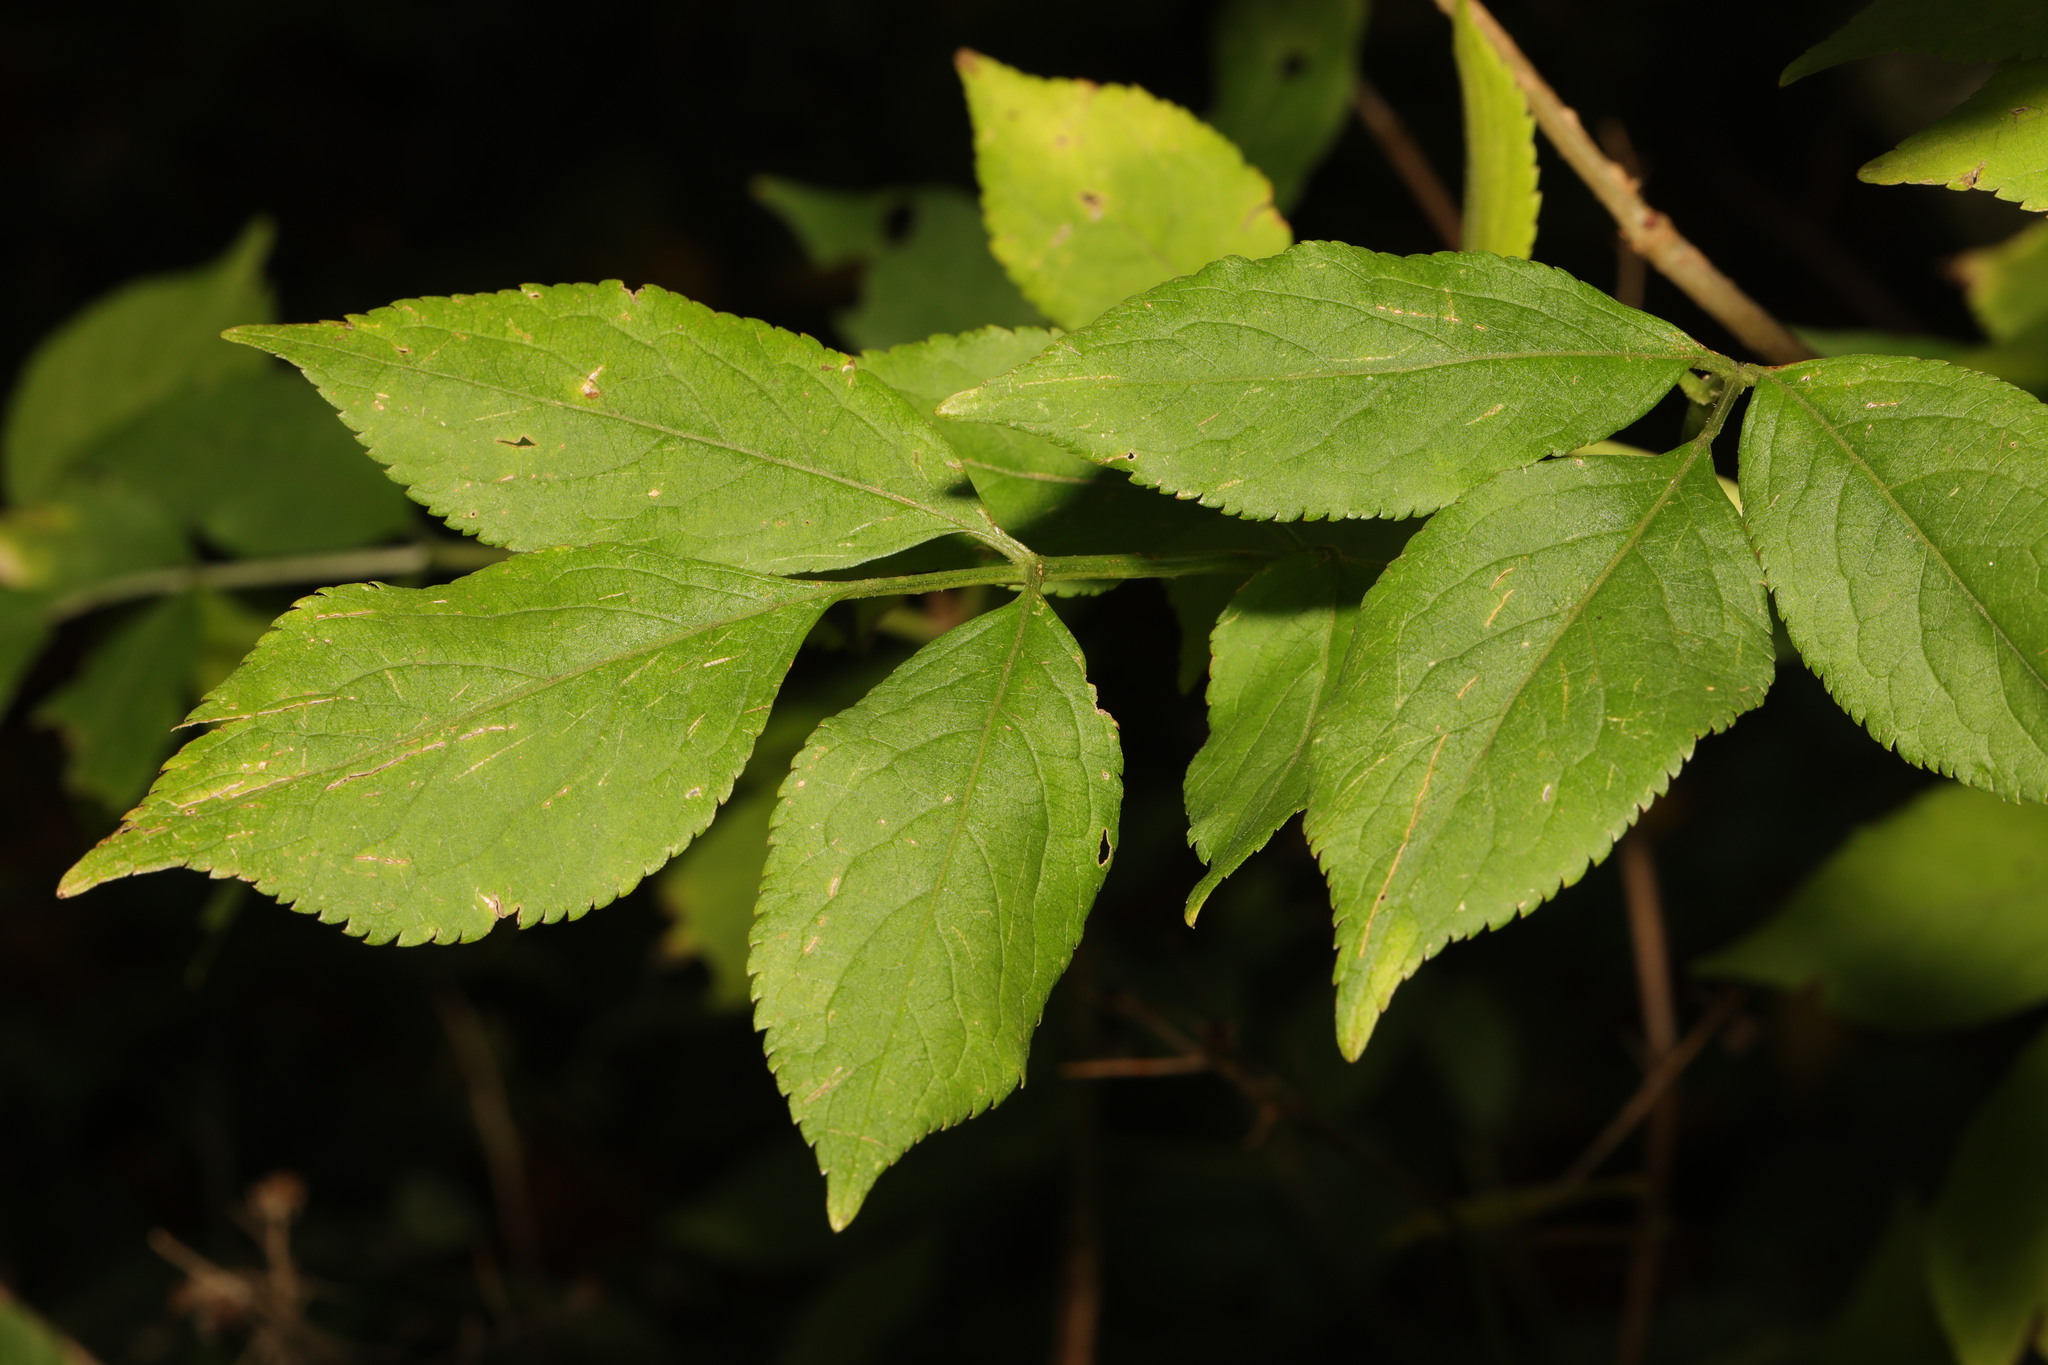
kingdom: Plantae
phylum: Tracheophyta
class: Magnoliopsida
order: Dipsacales
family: Viburnaceae
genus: Sambucus
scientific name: Sambucus nigra
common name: Elder
